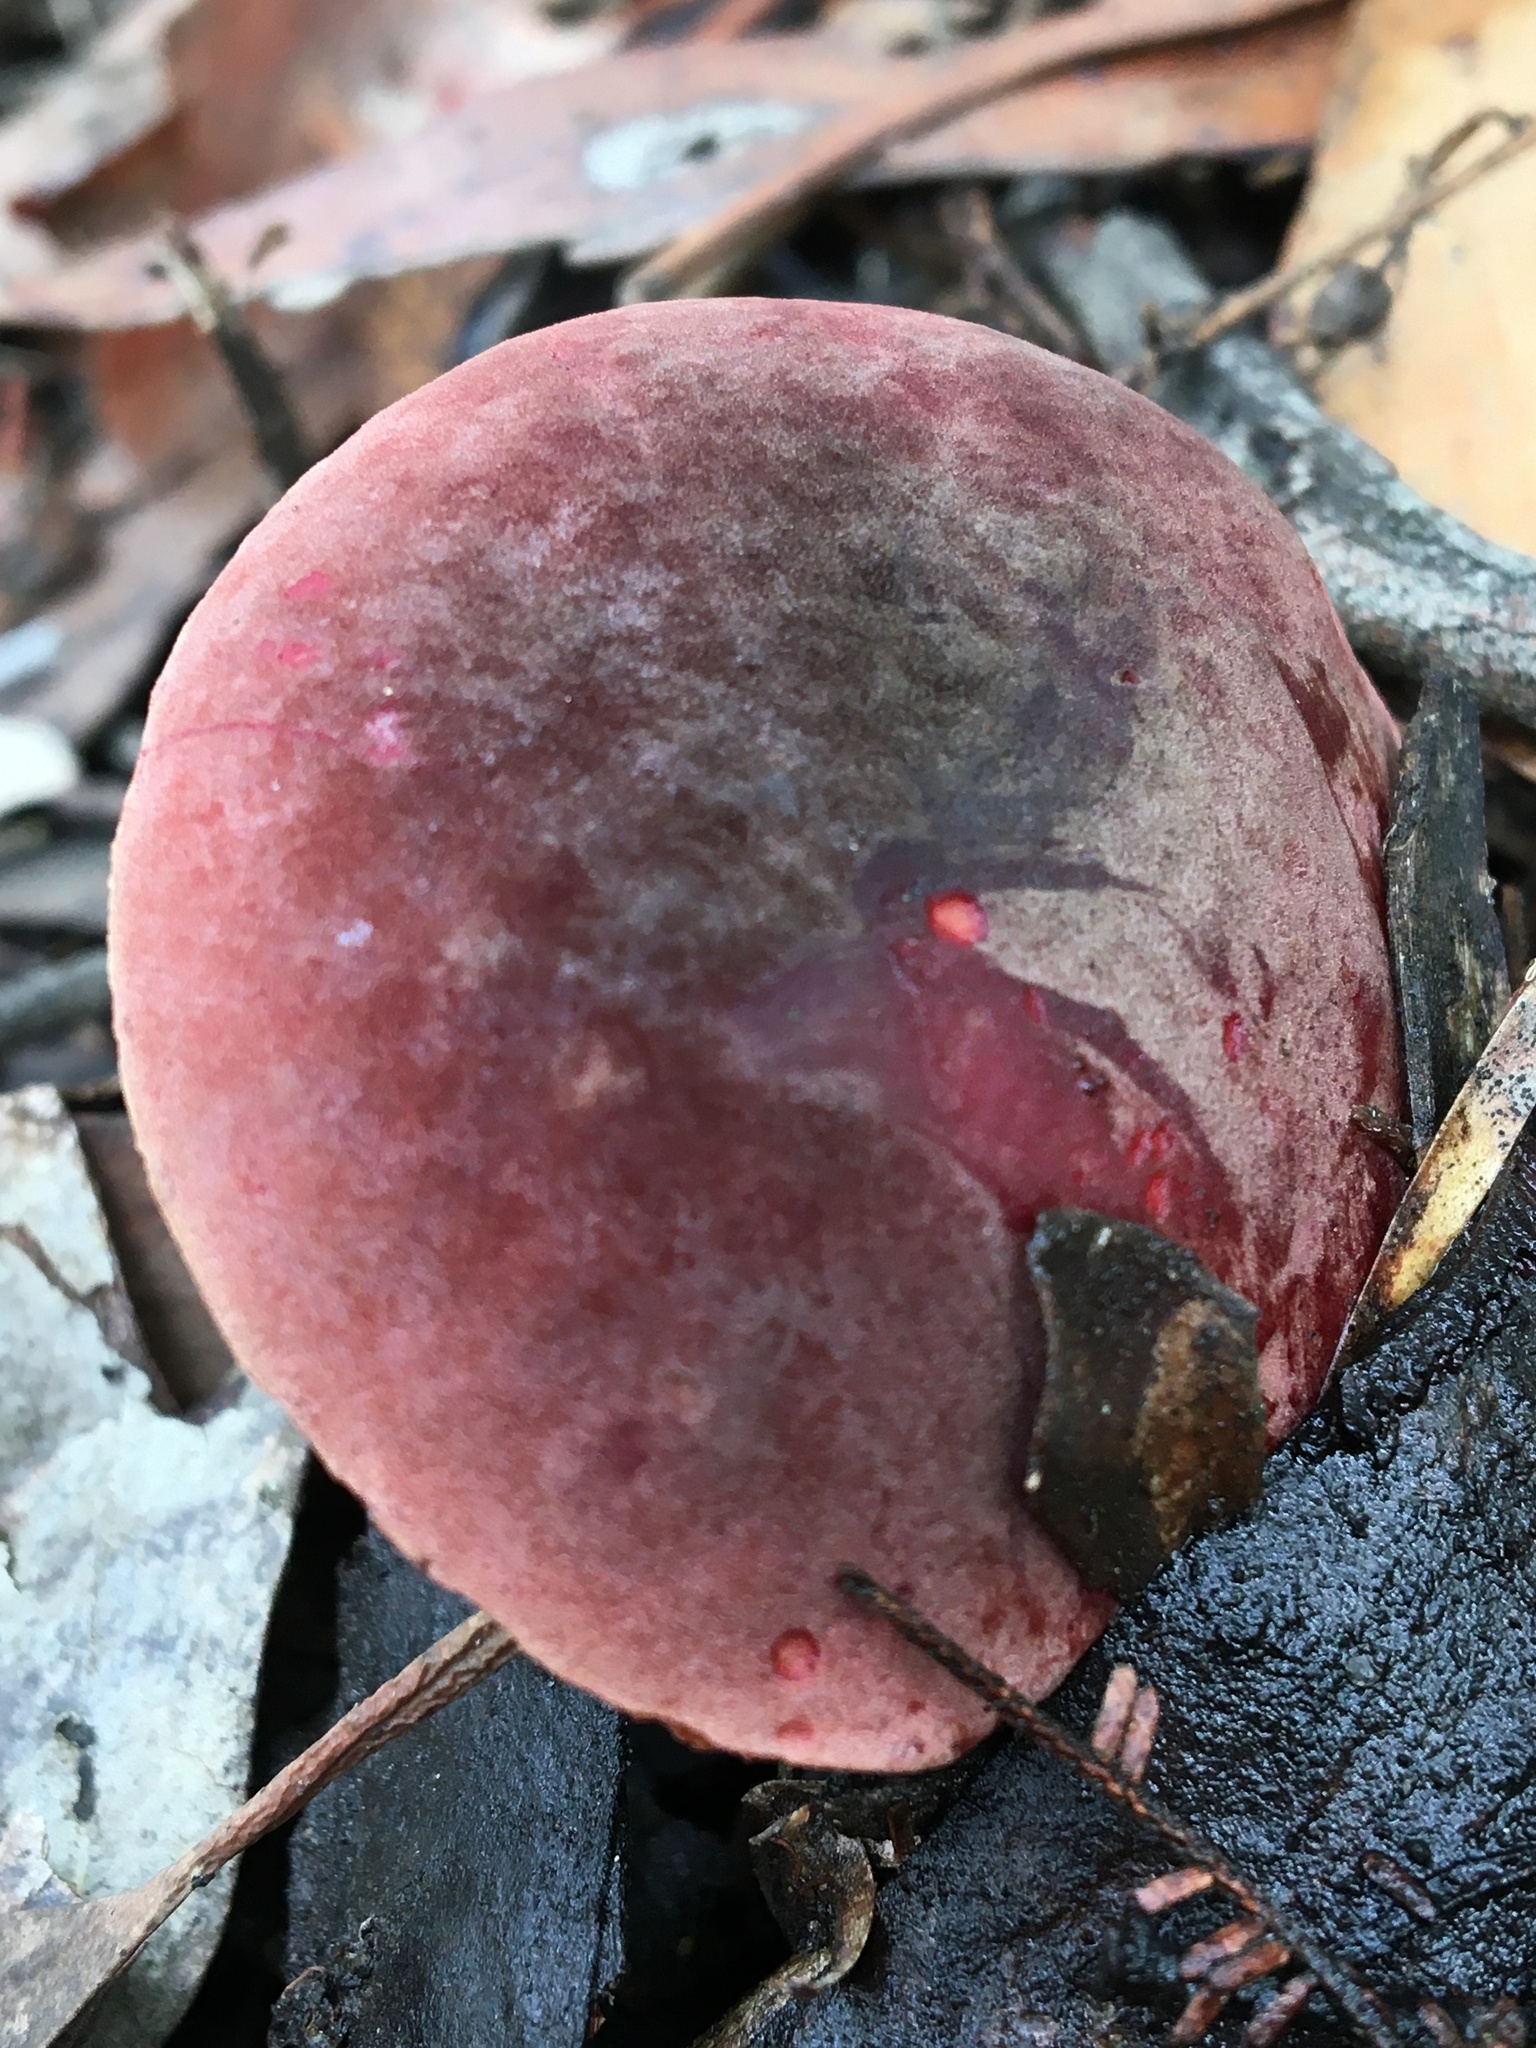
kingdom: Fungi
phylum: Basidiomycota
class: Agaricomycetes
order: Boletales
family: Boletaceae
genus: Boletus
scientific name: Boletus barragensis
